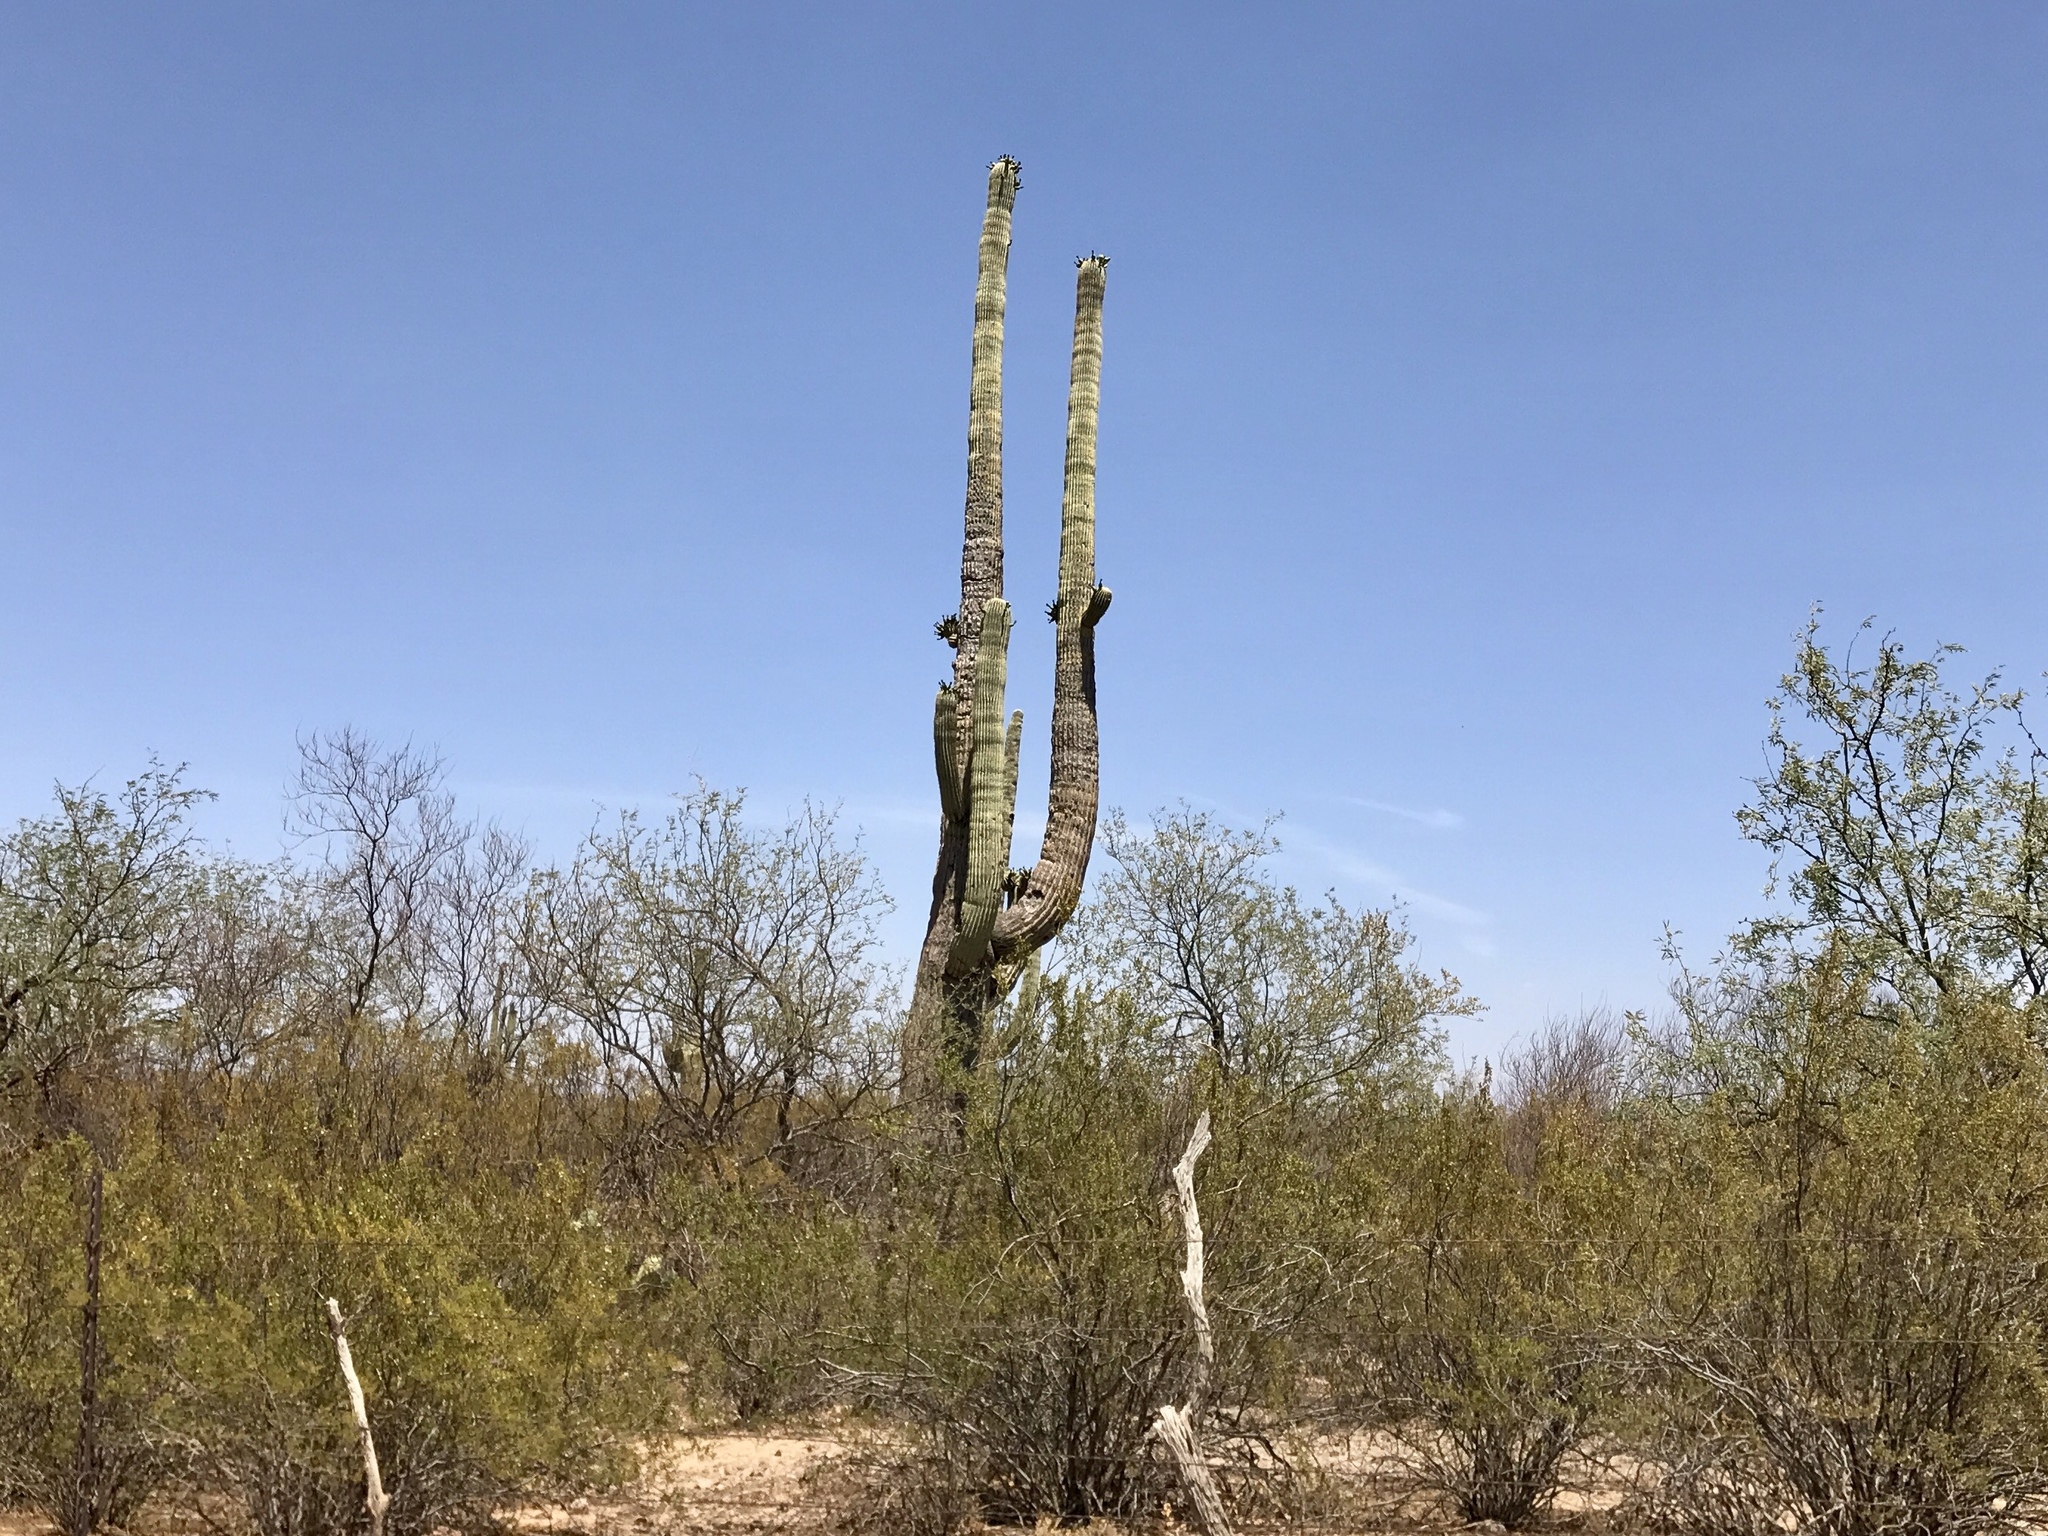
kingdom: Plantae
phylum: Tracheophyta
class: Magnoliopsida
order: Caryophyllales
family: Cactaceae
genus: Carnegiea
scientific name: Carnegiea gigantea
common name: Saguaro
